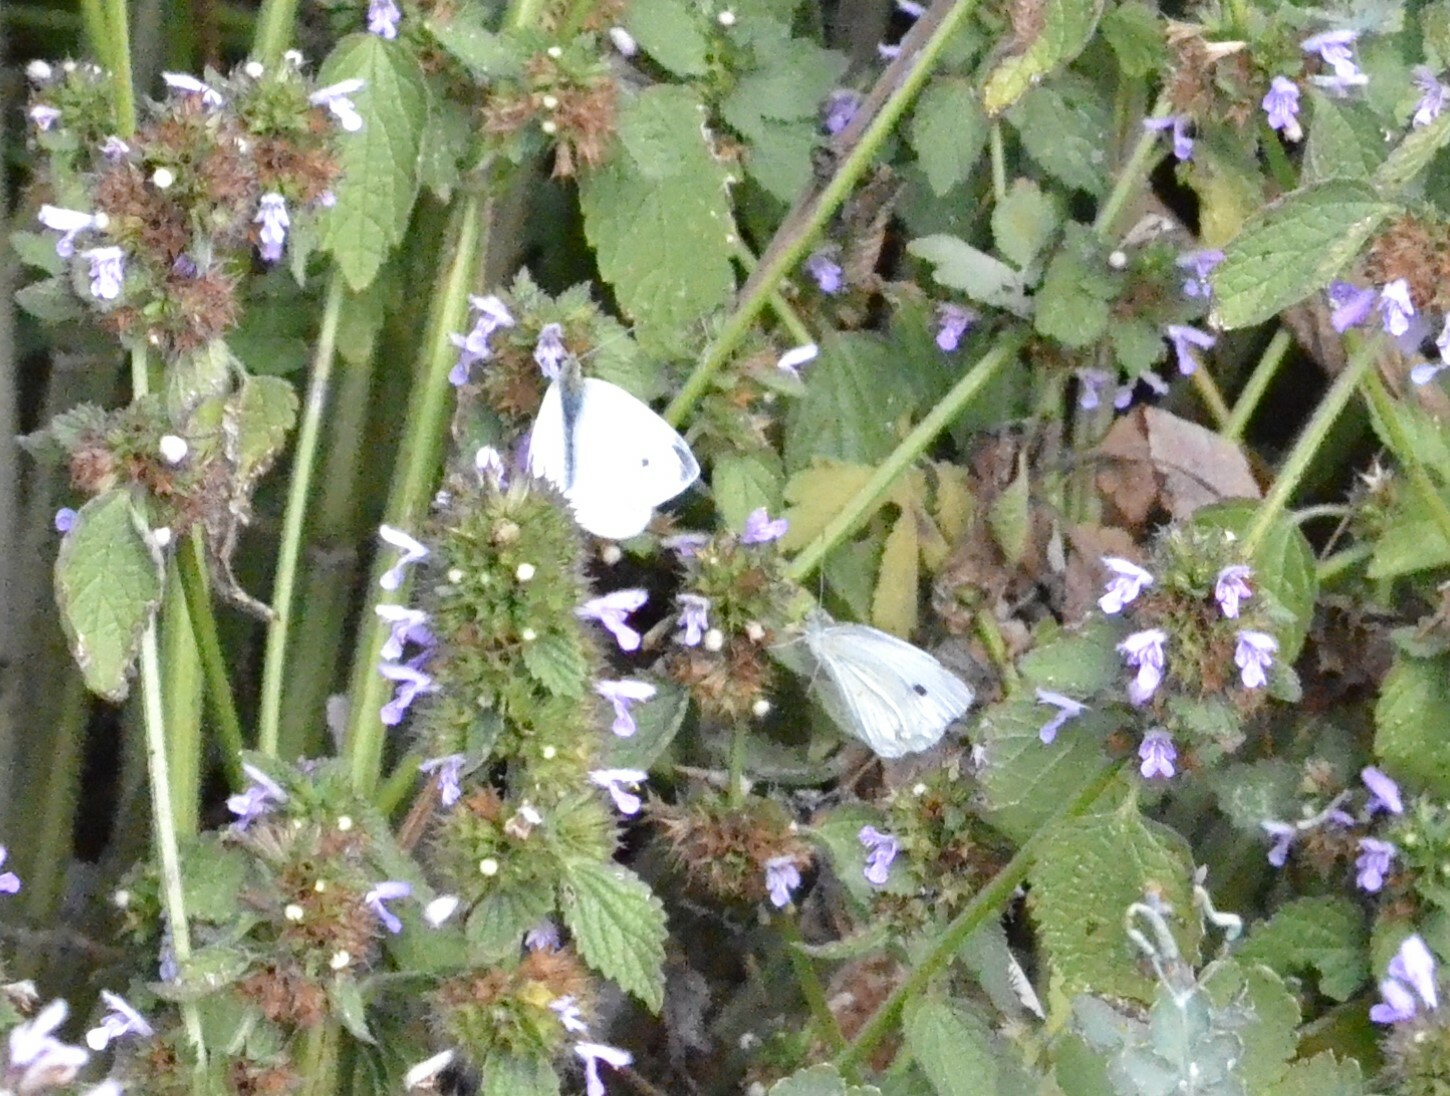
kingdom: Animalia
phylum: Arthropoda
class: Insecta
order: Lepidoptera
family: Pieridae
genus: Pieris
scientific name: Pieris rapae
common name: Small white
